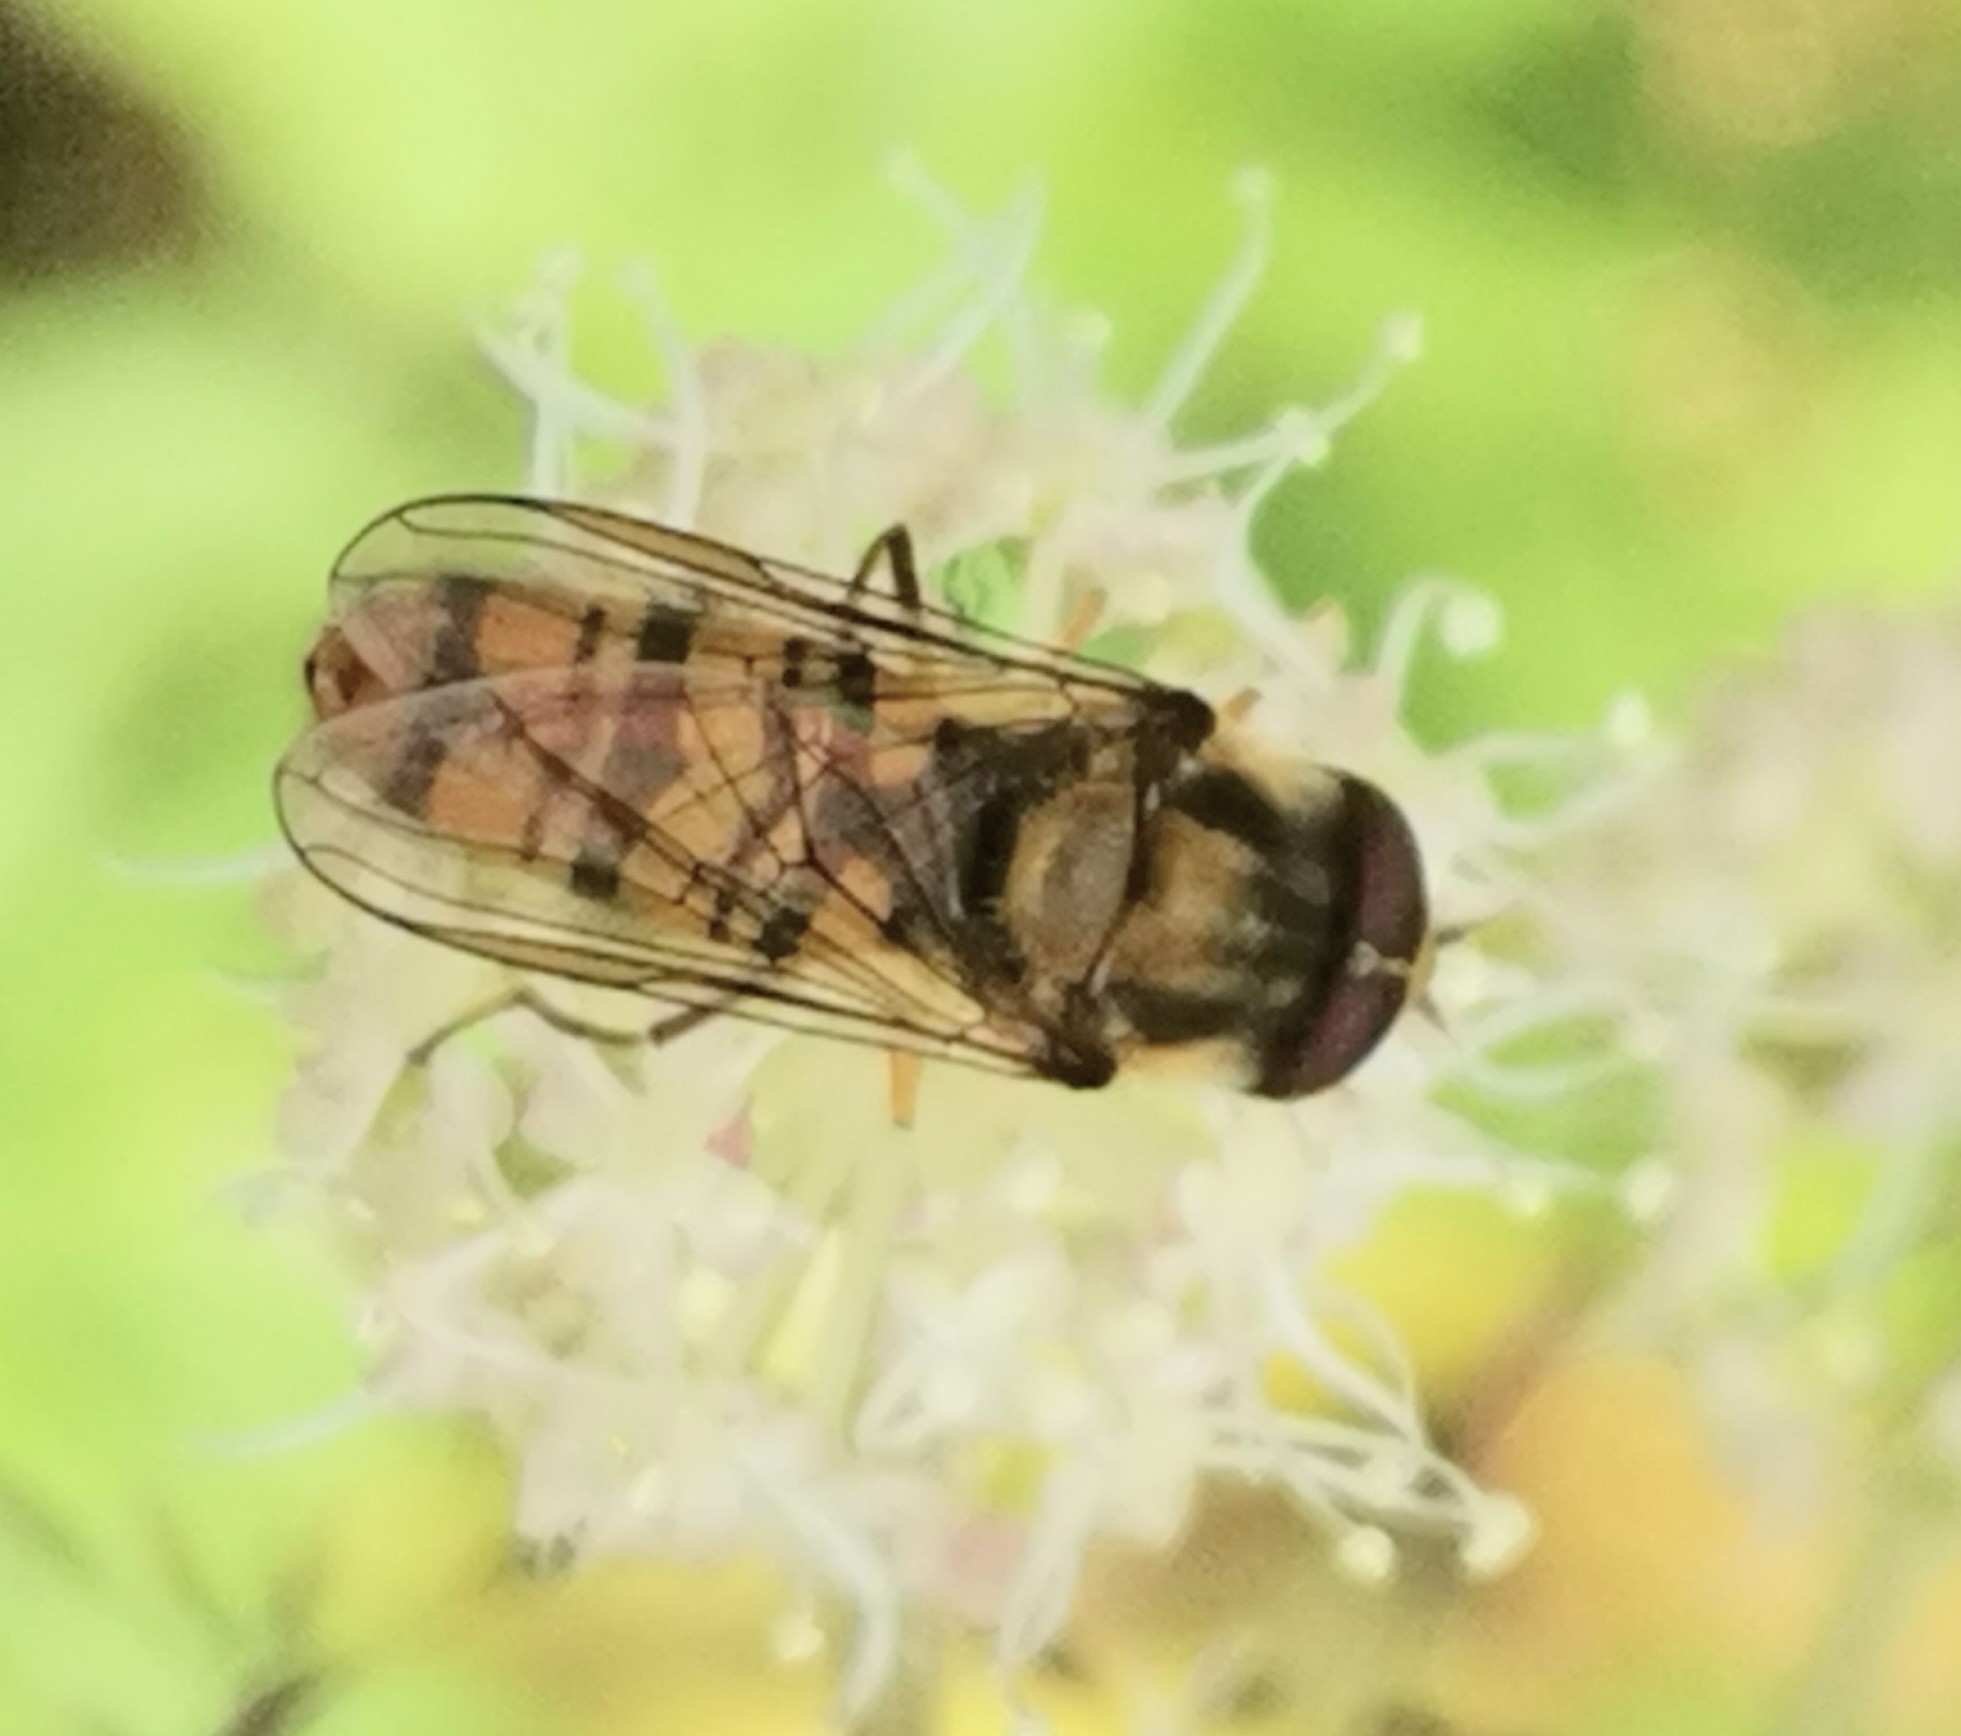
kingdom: Animalia
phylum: Arthropoda
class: Insecta
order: Diptera
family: Syrphidae
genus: Episyrphus
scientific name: Episyrphus balteatus
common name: Marmalade hoverfly
